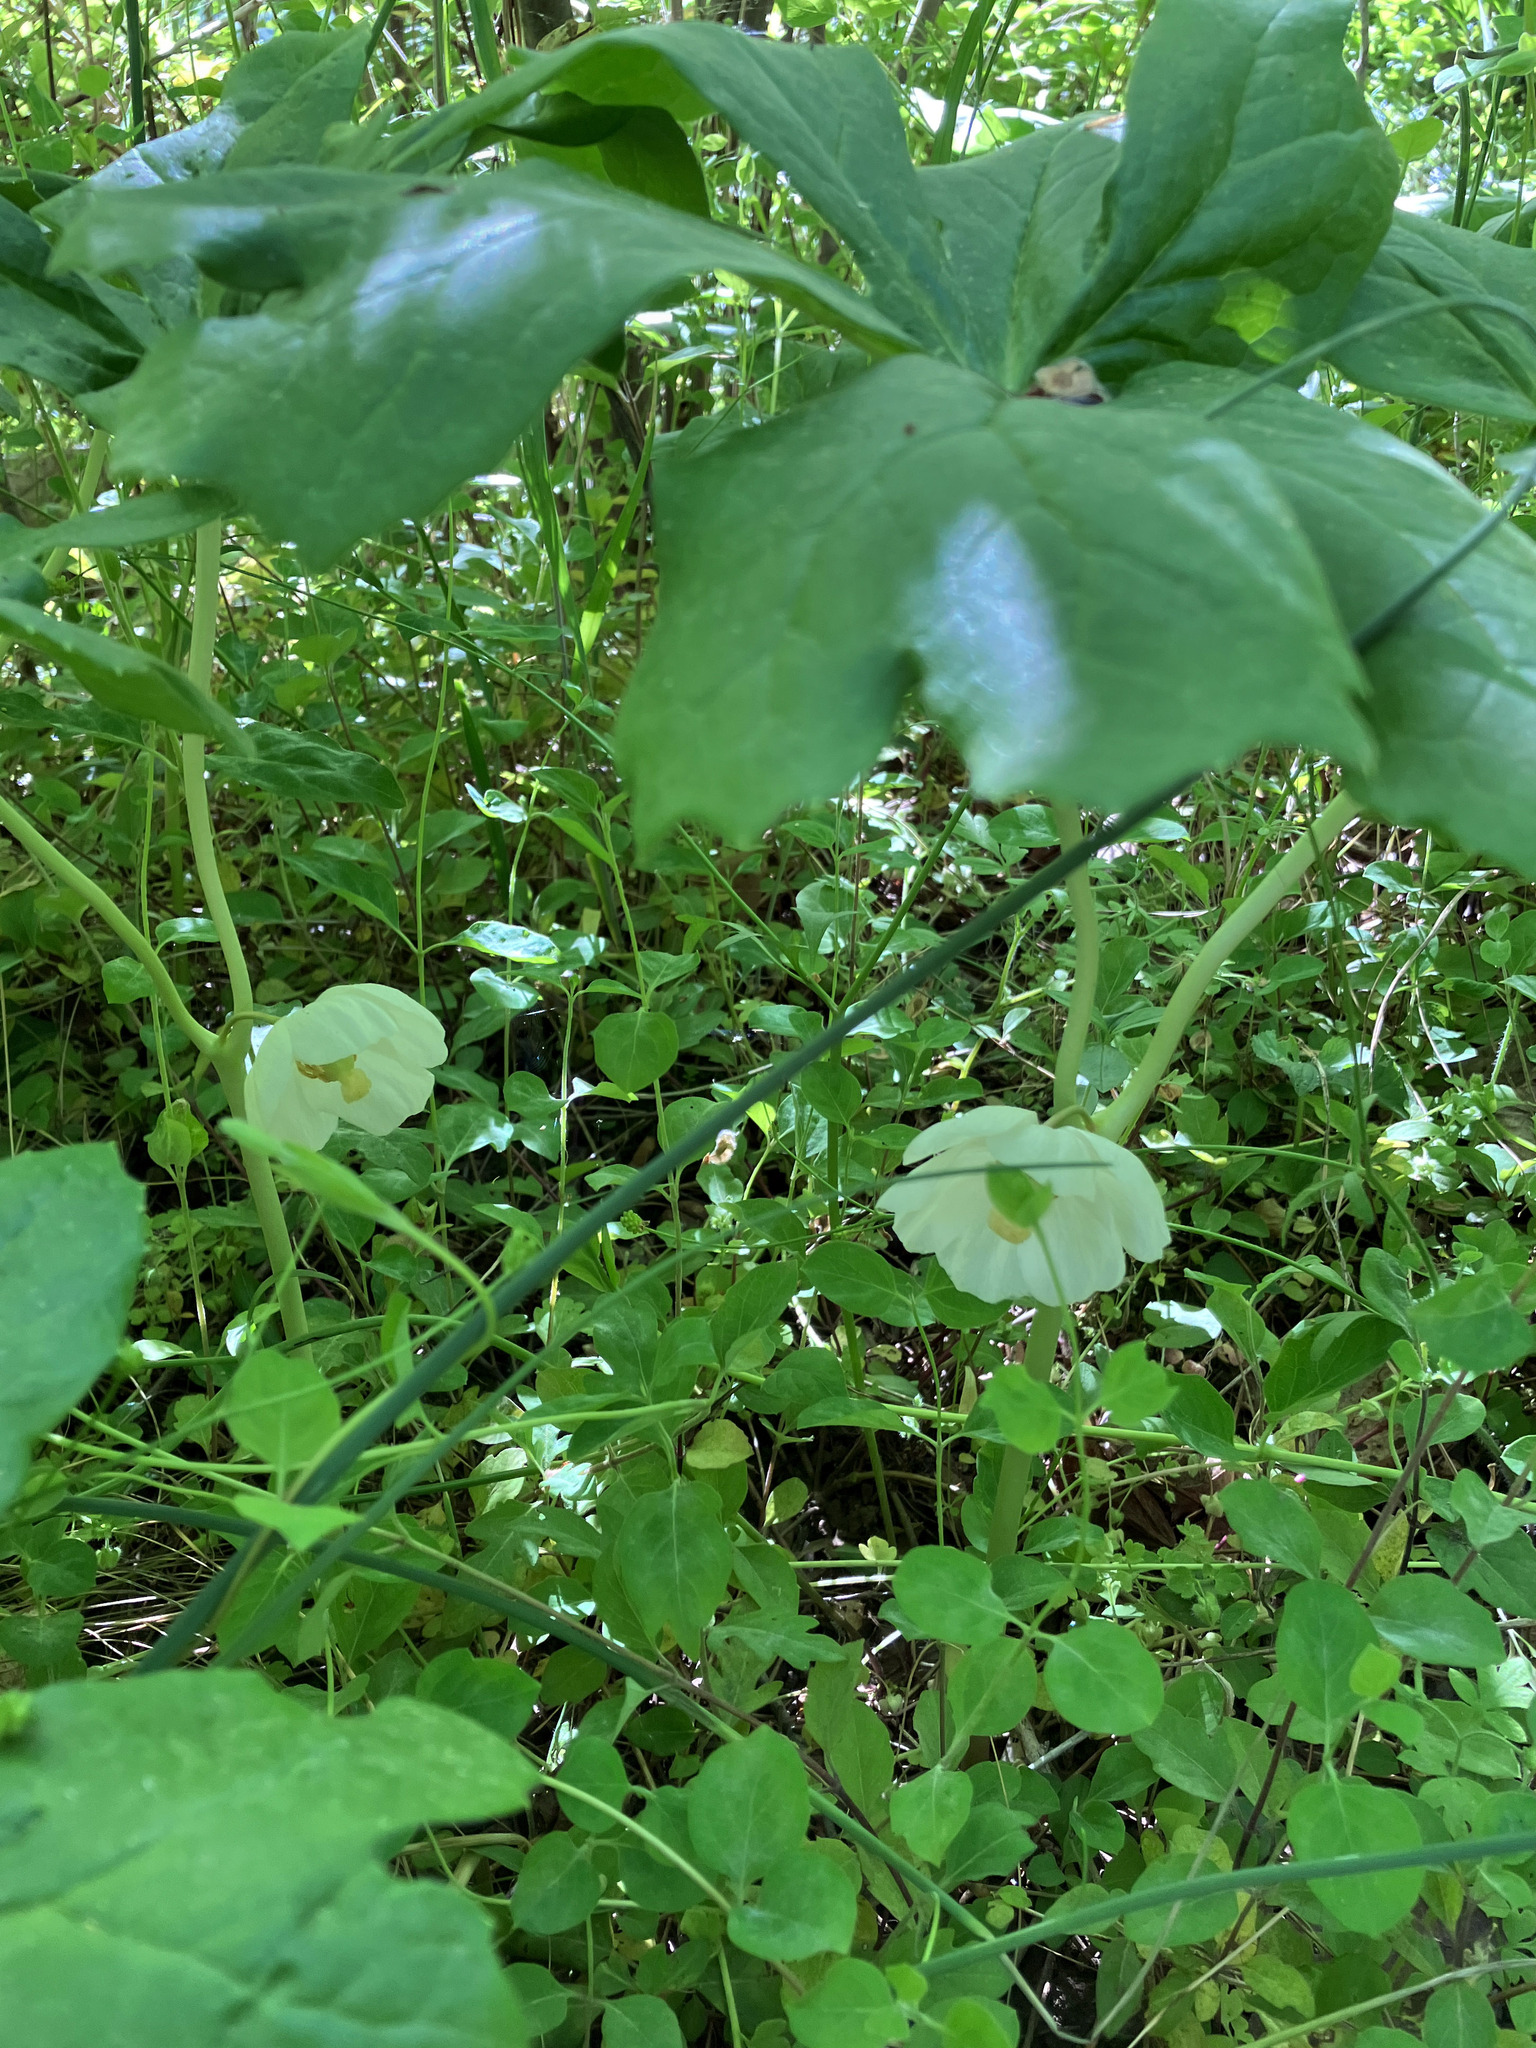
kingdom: Plantae
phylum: Tracheophyta
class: Magnoliopsida
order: Ranunculales
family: Berberidaceae
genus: Podophyllum
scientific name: Podophyllum peltatum
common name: Wild mandrake
